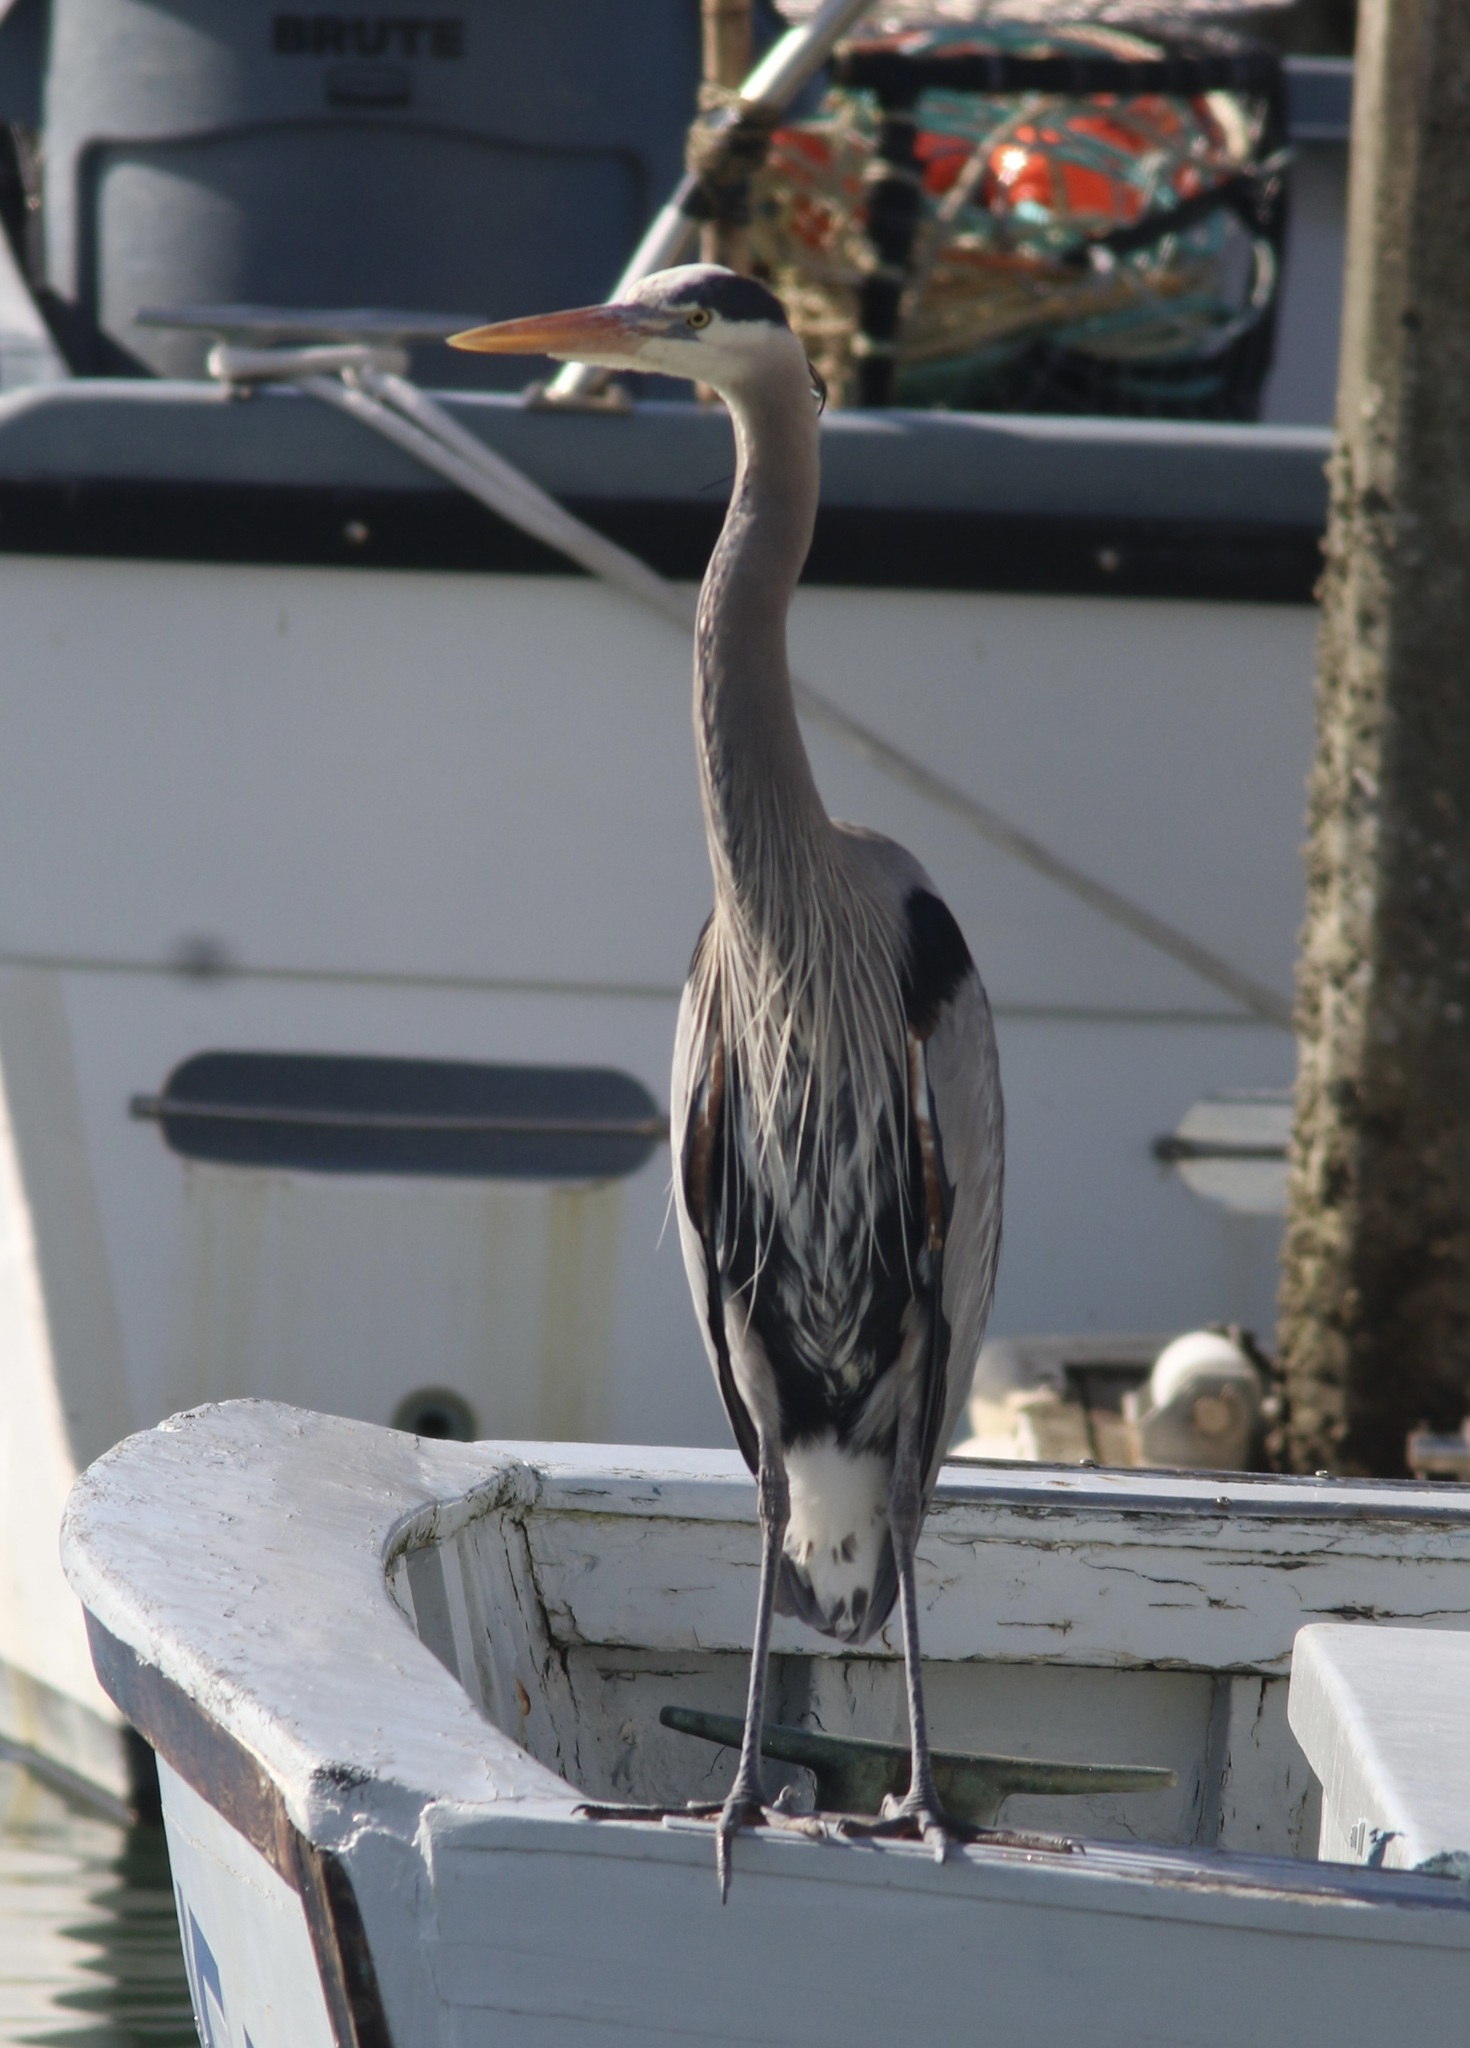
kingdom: Animalia
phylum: Chordata
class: Aves
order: Pelecaniformes
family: Ardeidae
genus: Ardea
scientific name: Ardea herodias
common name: Great blue heron
